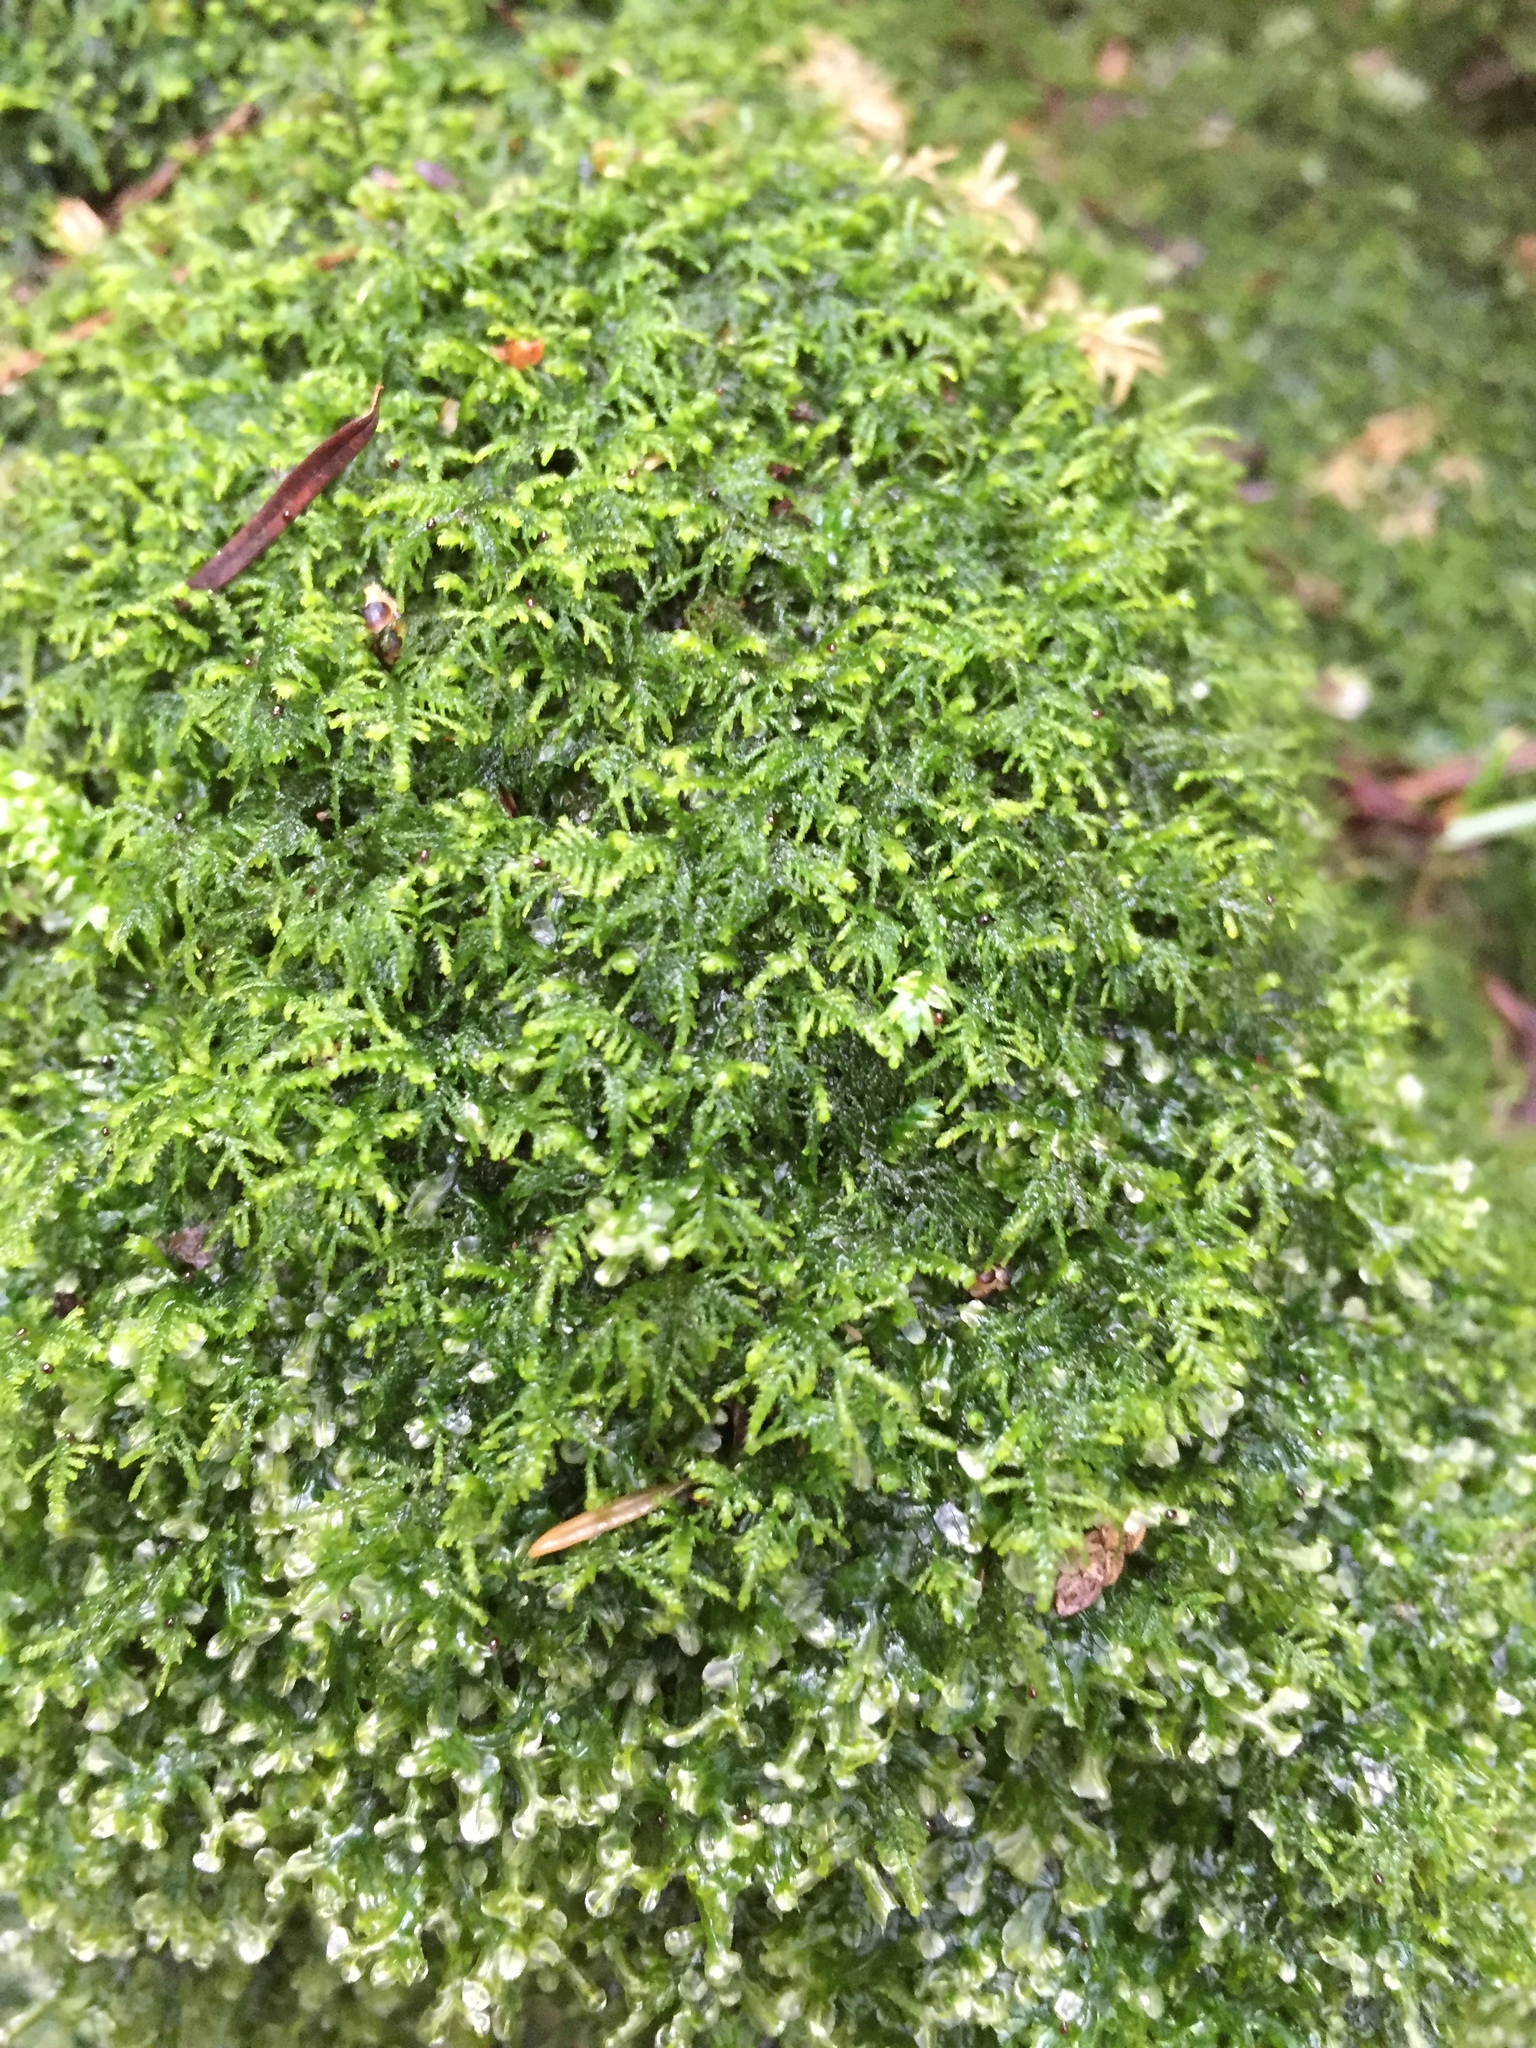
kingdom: Plantae
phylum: Bryophyta
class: Bryopsida
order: Hypnales
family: Lembophyllaceae
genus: Heterocladium
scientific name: Heterocladium macounii
